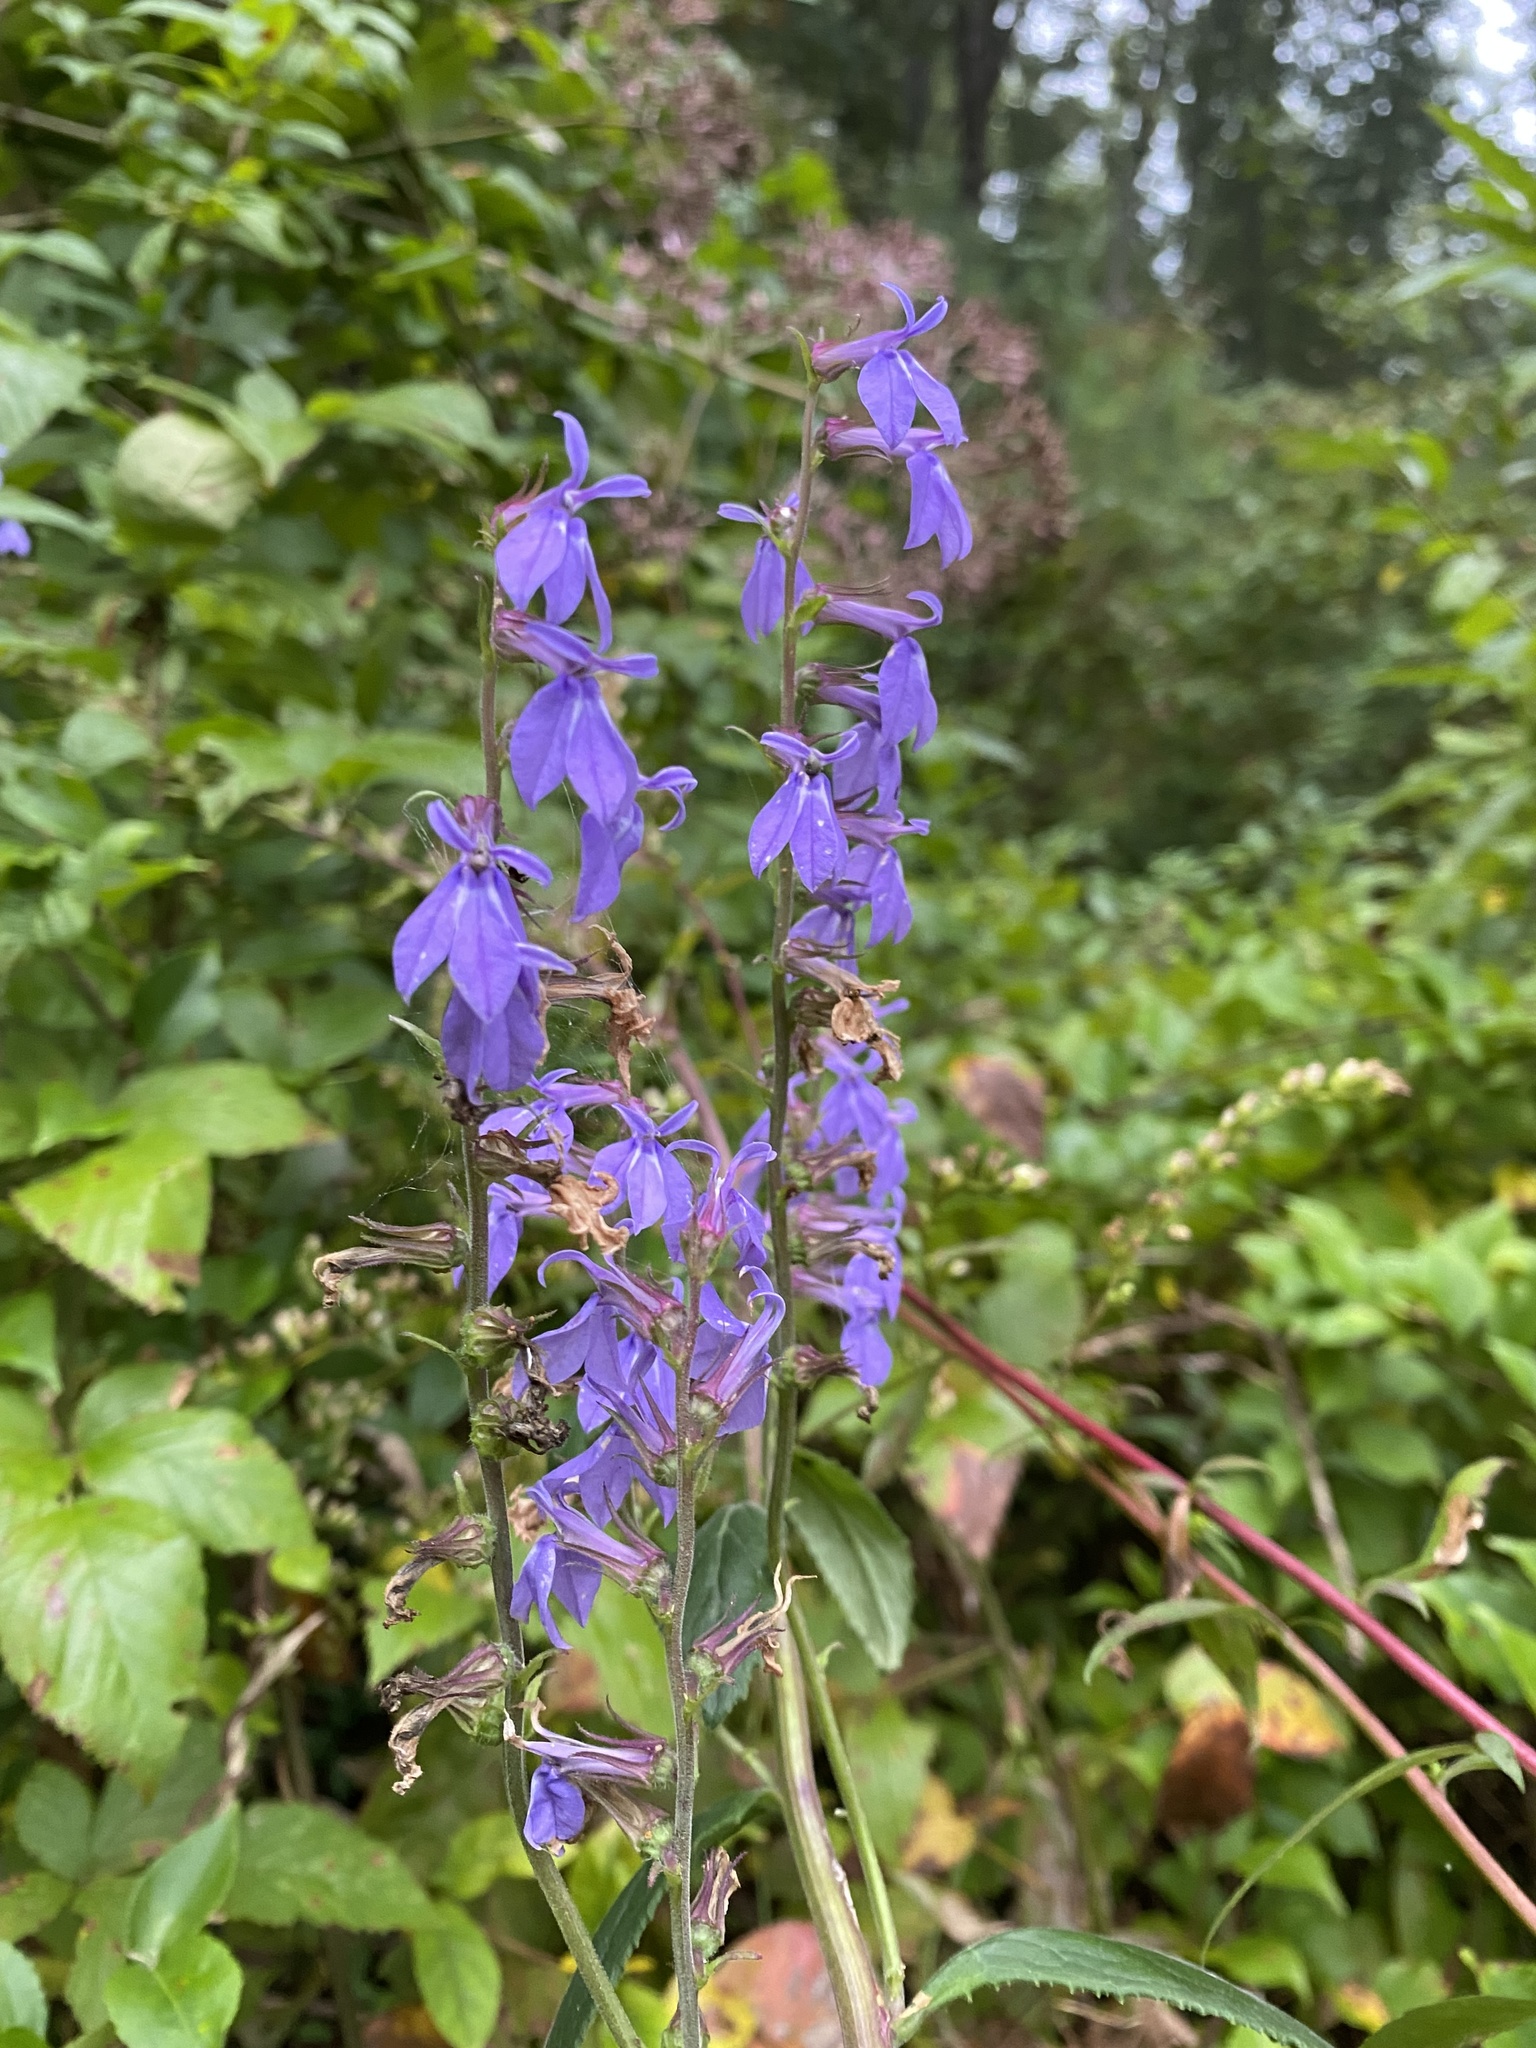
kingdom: Plantae
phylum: Tracheophyta
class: Magnoliopsida
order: Asterales
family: Campanulaceae
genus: Lobelia
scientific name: Lobelia puberula
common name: Purple dewdrop
